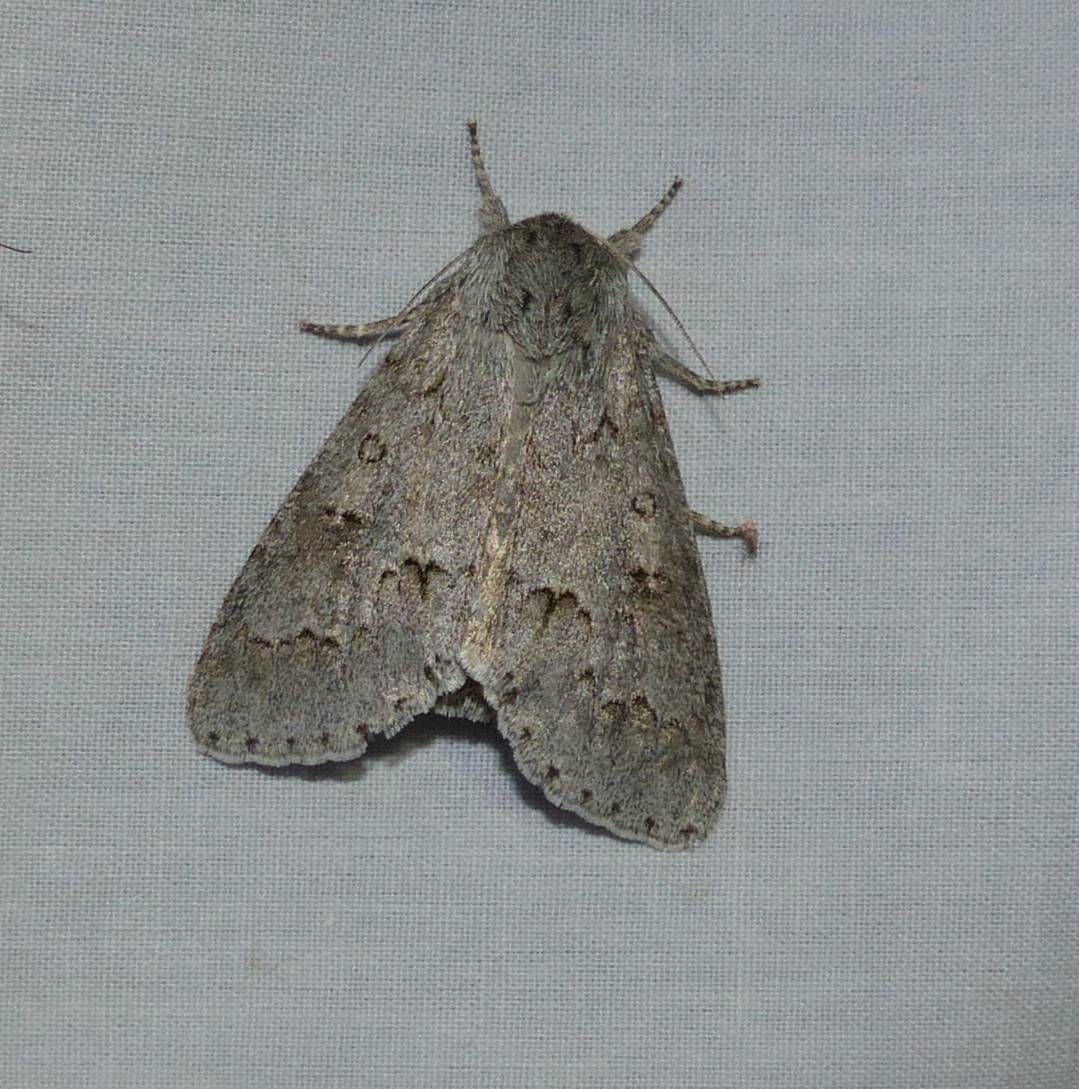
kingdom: Animalia
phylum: Arthropoda
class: Insecta
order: Lepidoptera
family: Noctuidae
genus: Acronicta
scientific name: Acronicta insita
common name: Large gray dagger
